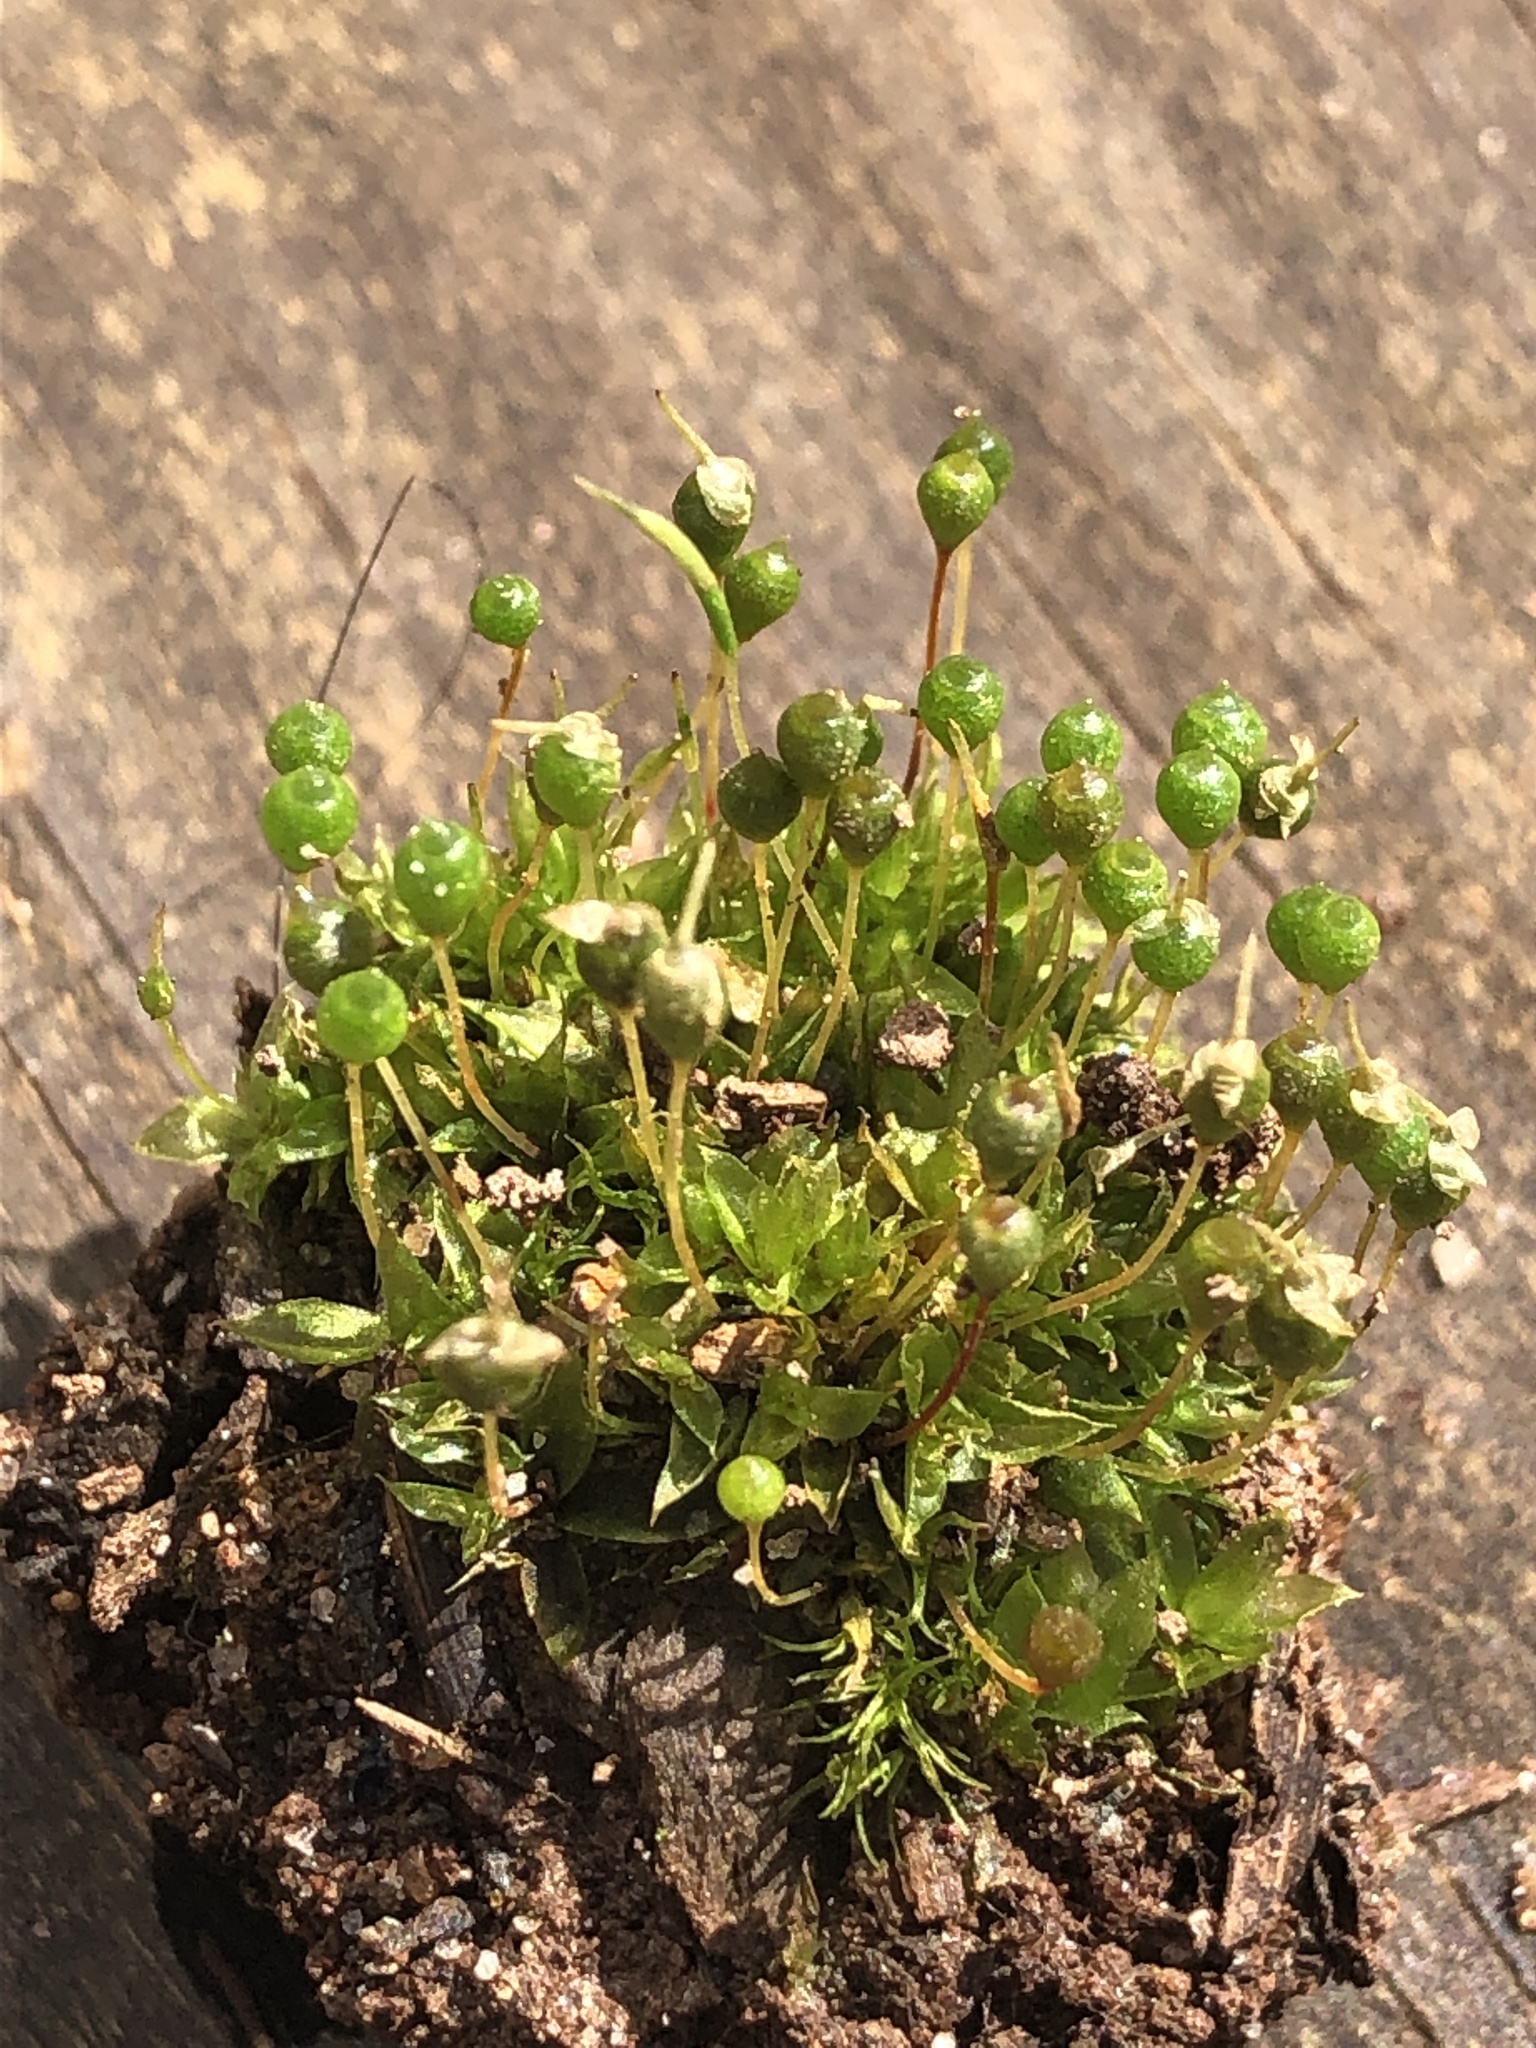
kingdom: Plantae
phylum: Bryophyta
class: Bryopsida
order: Funariales
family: Funariaceae
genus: Physcomitrium
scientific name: Physcomitrium pyriforme
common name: Common bladder-moss
